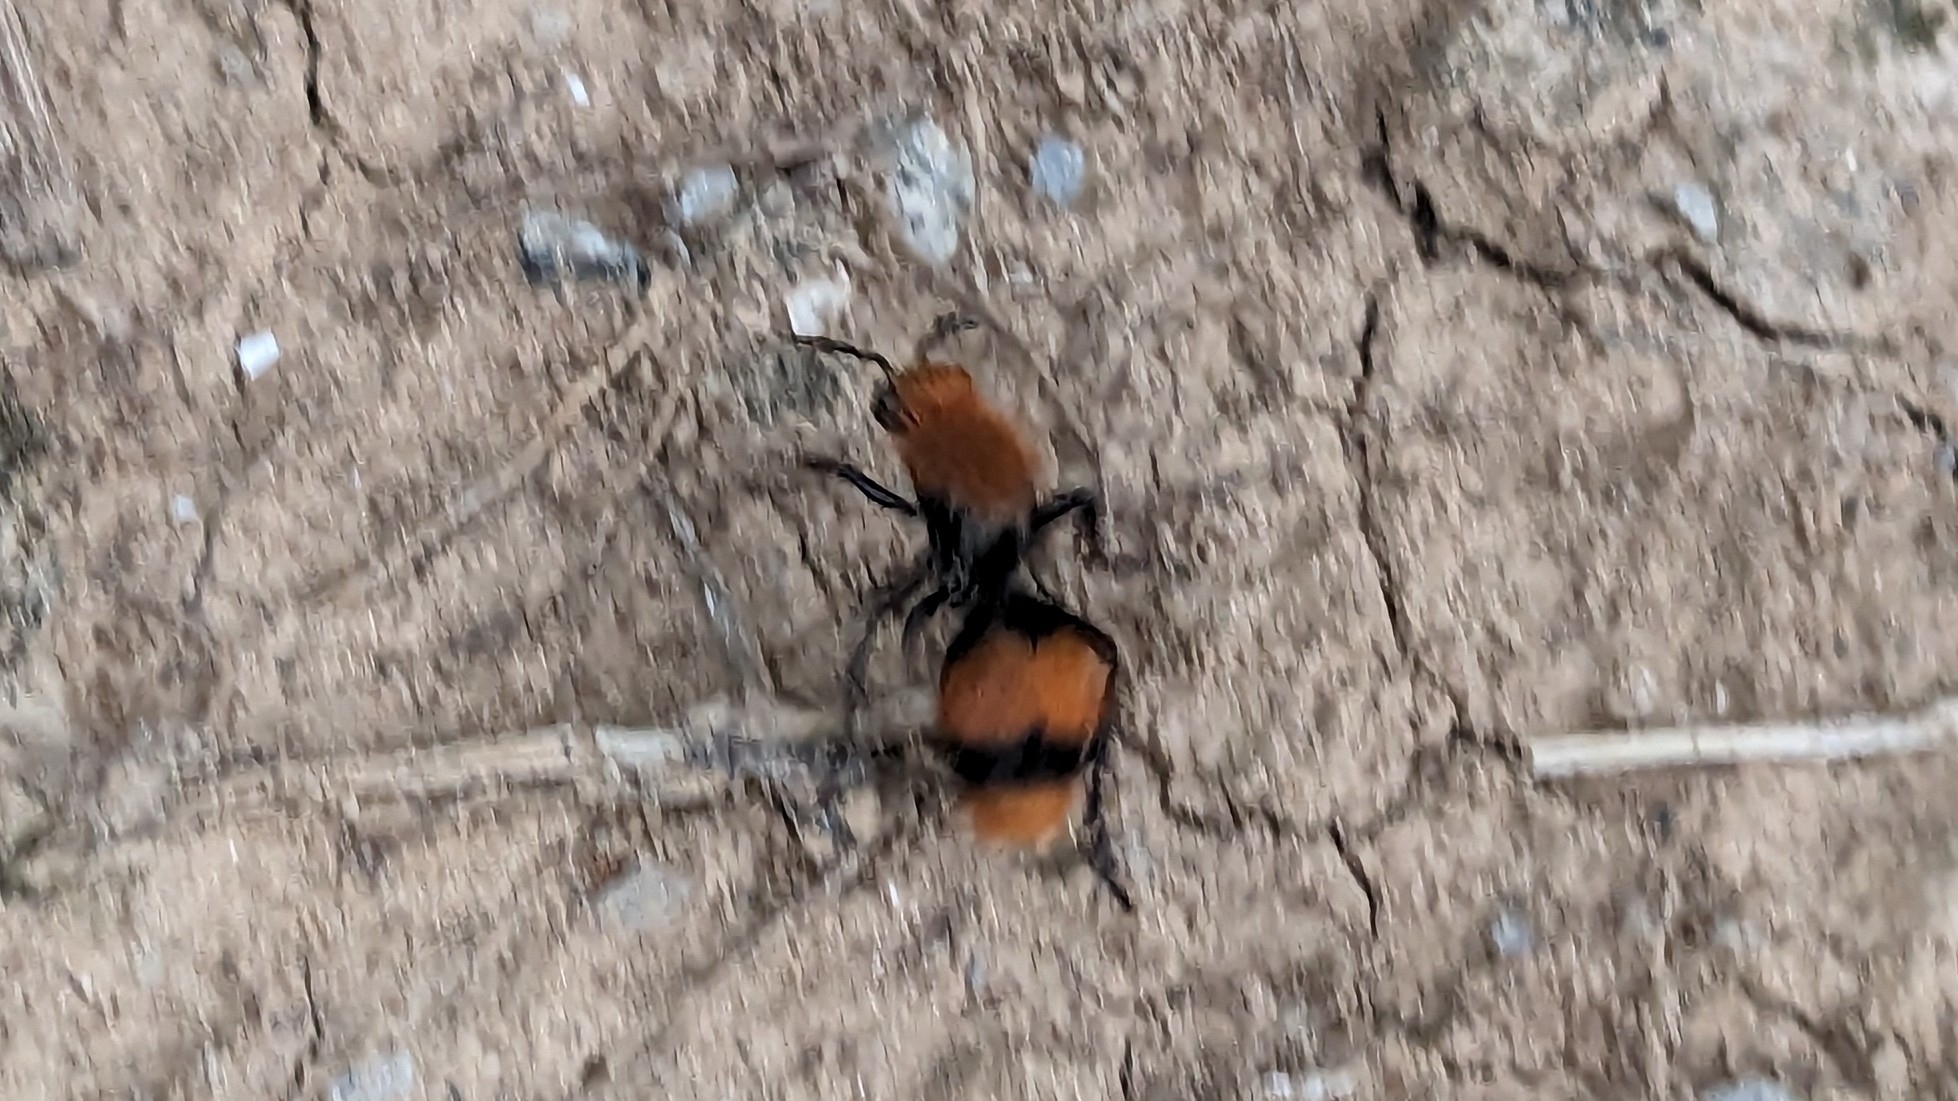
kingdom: Animalia
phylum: Arthropoda
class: Insecta
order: Hymenoptera
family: Mutillidae
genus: Dasymutilla
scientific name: Dasymutilla occidentalis
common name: Common eastern velvet ant
